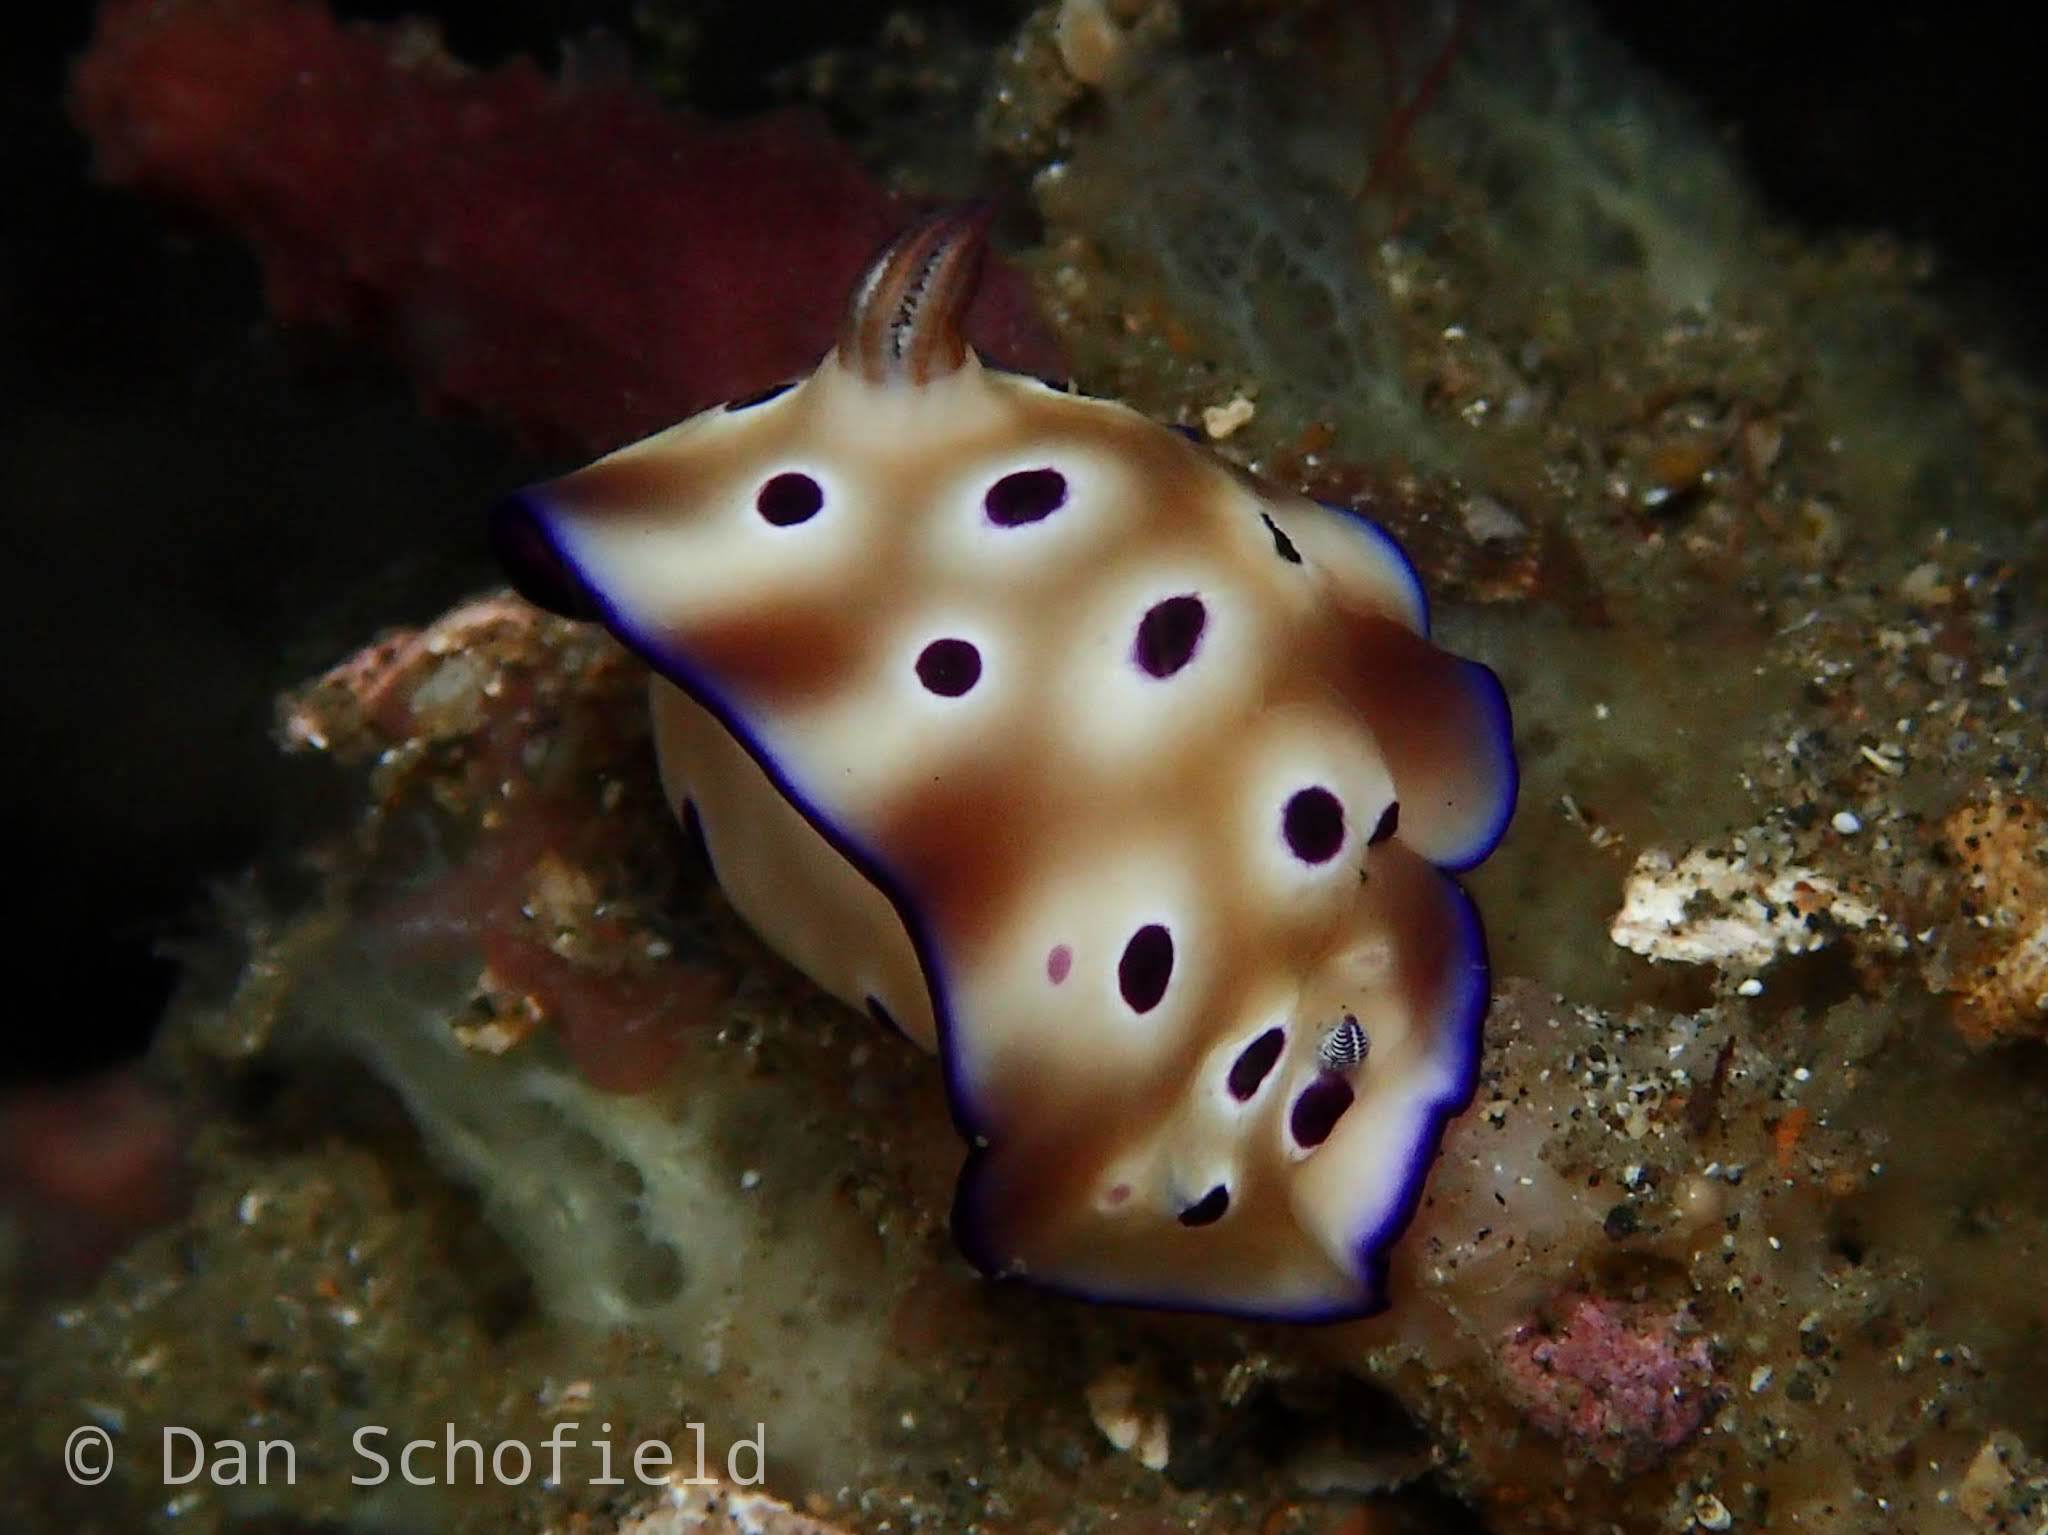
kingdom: Animalia
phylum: Mollusca
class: Gastropoda
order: Nudibranchia
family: Chromodorididae
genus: Hypselodoris
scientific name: Hypselodoris tryoni
